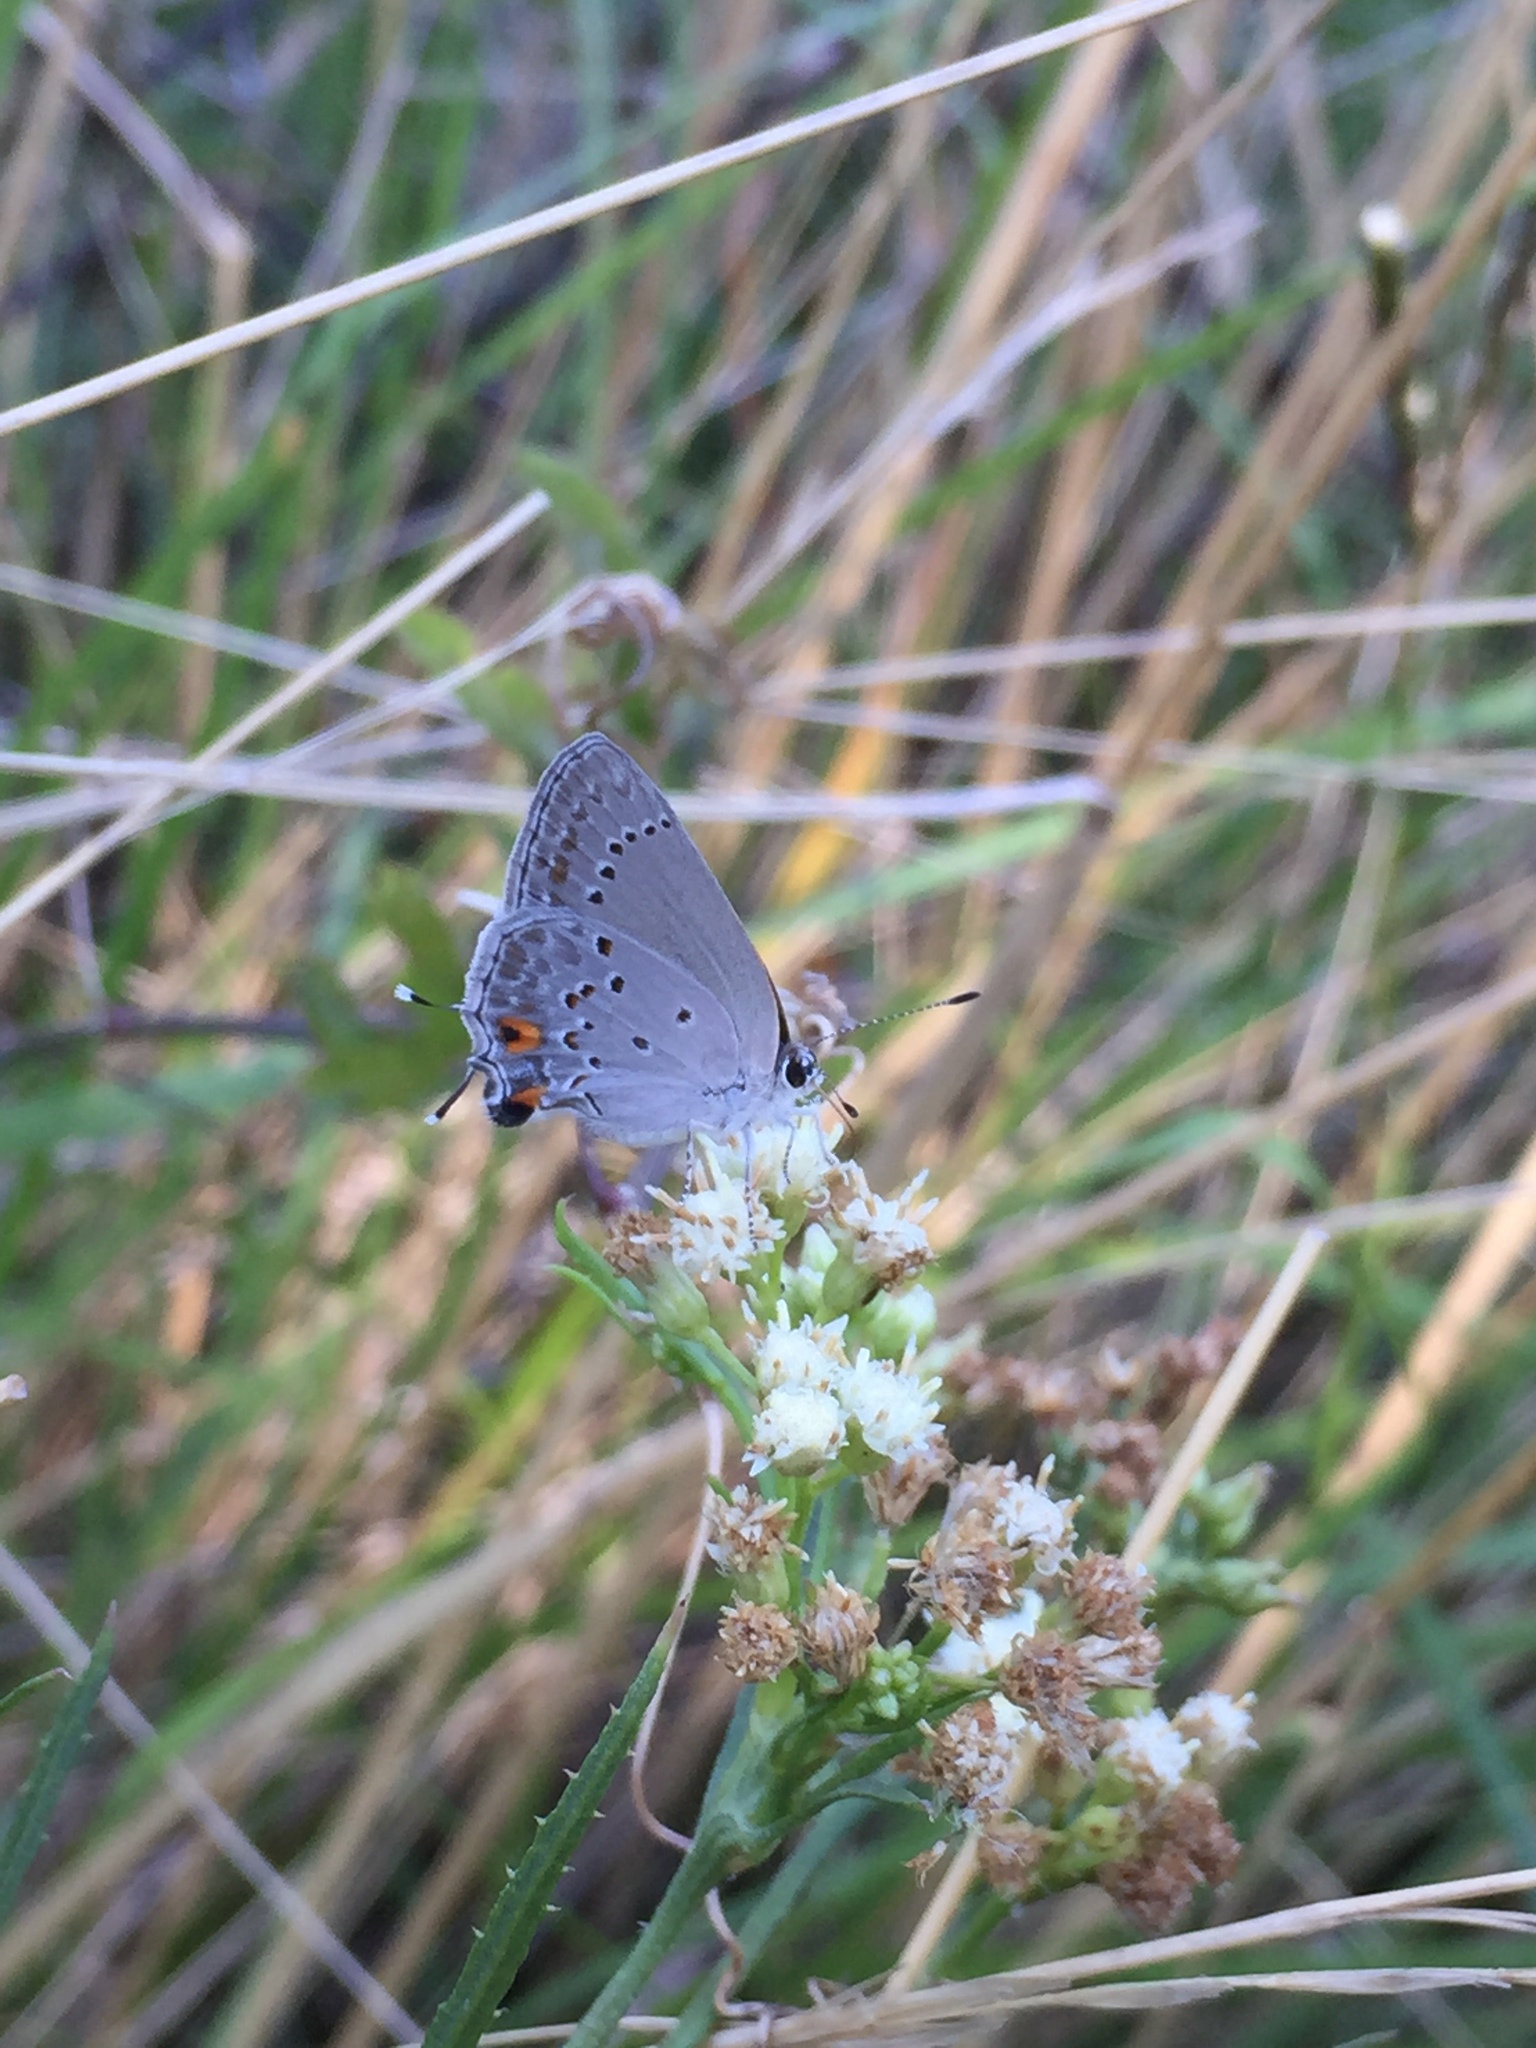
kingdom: Animalia
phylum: Arthropoda
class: Insecta
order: Lepidoptera
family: Lycaenidae
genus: Strymon
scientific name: Strymon eurytulus
